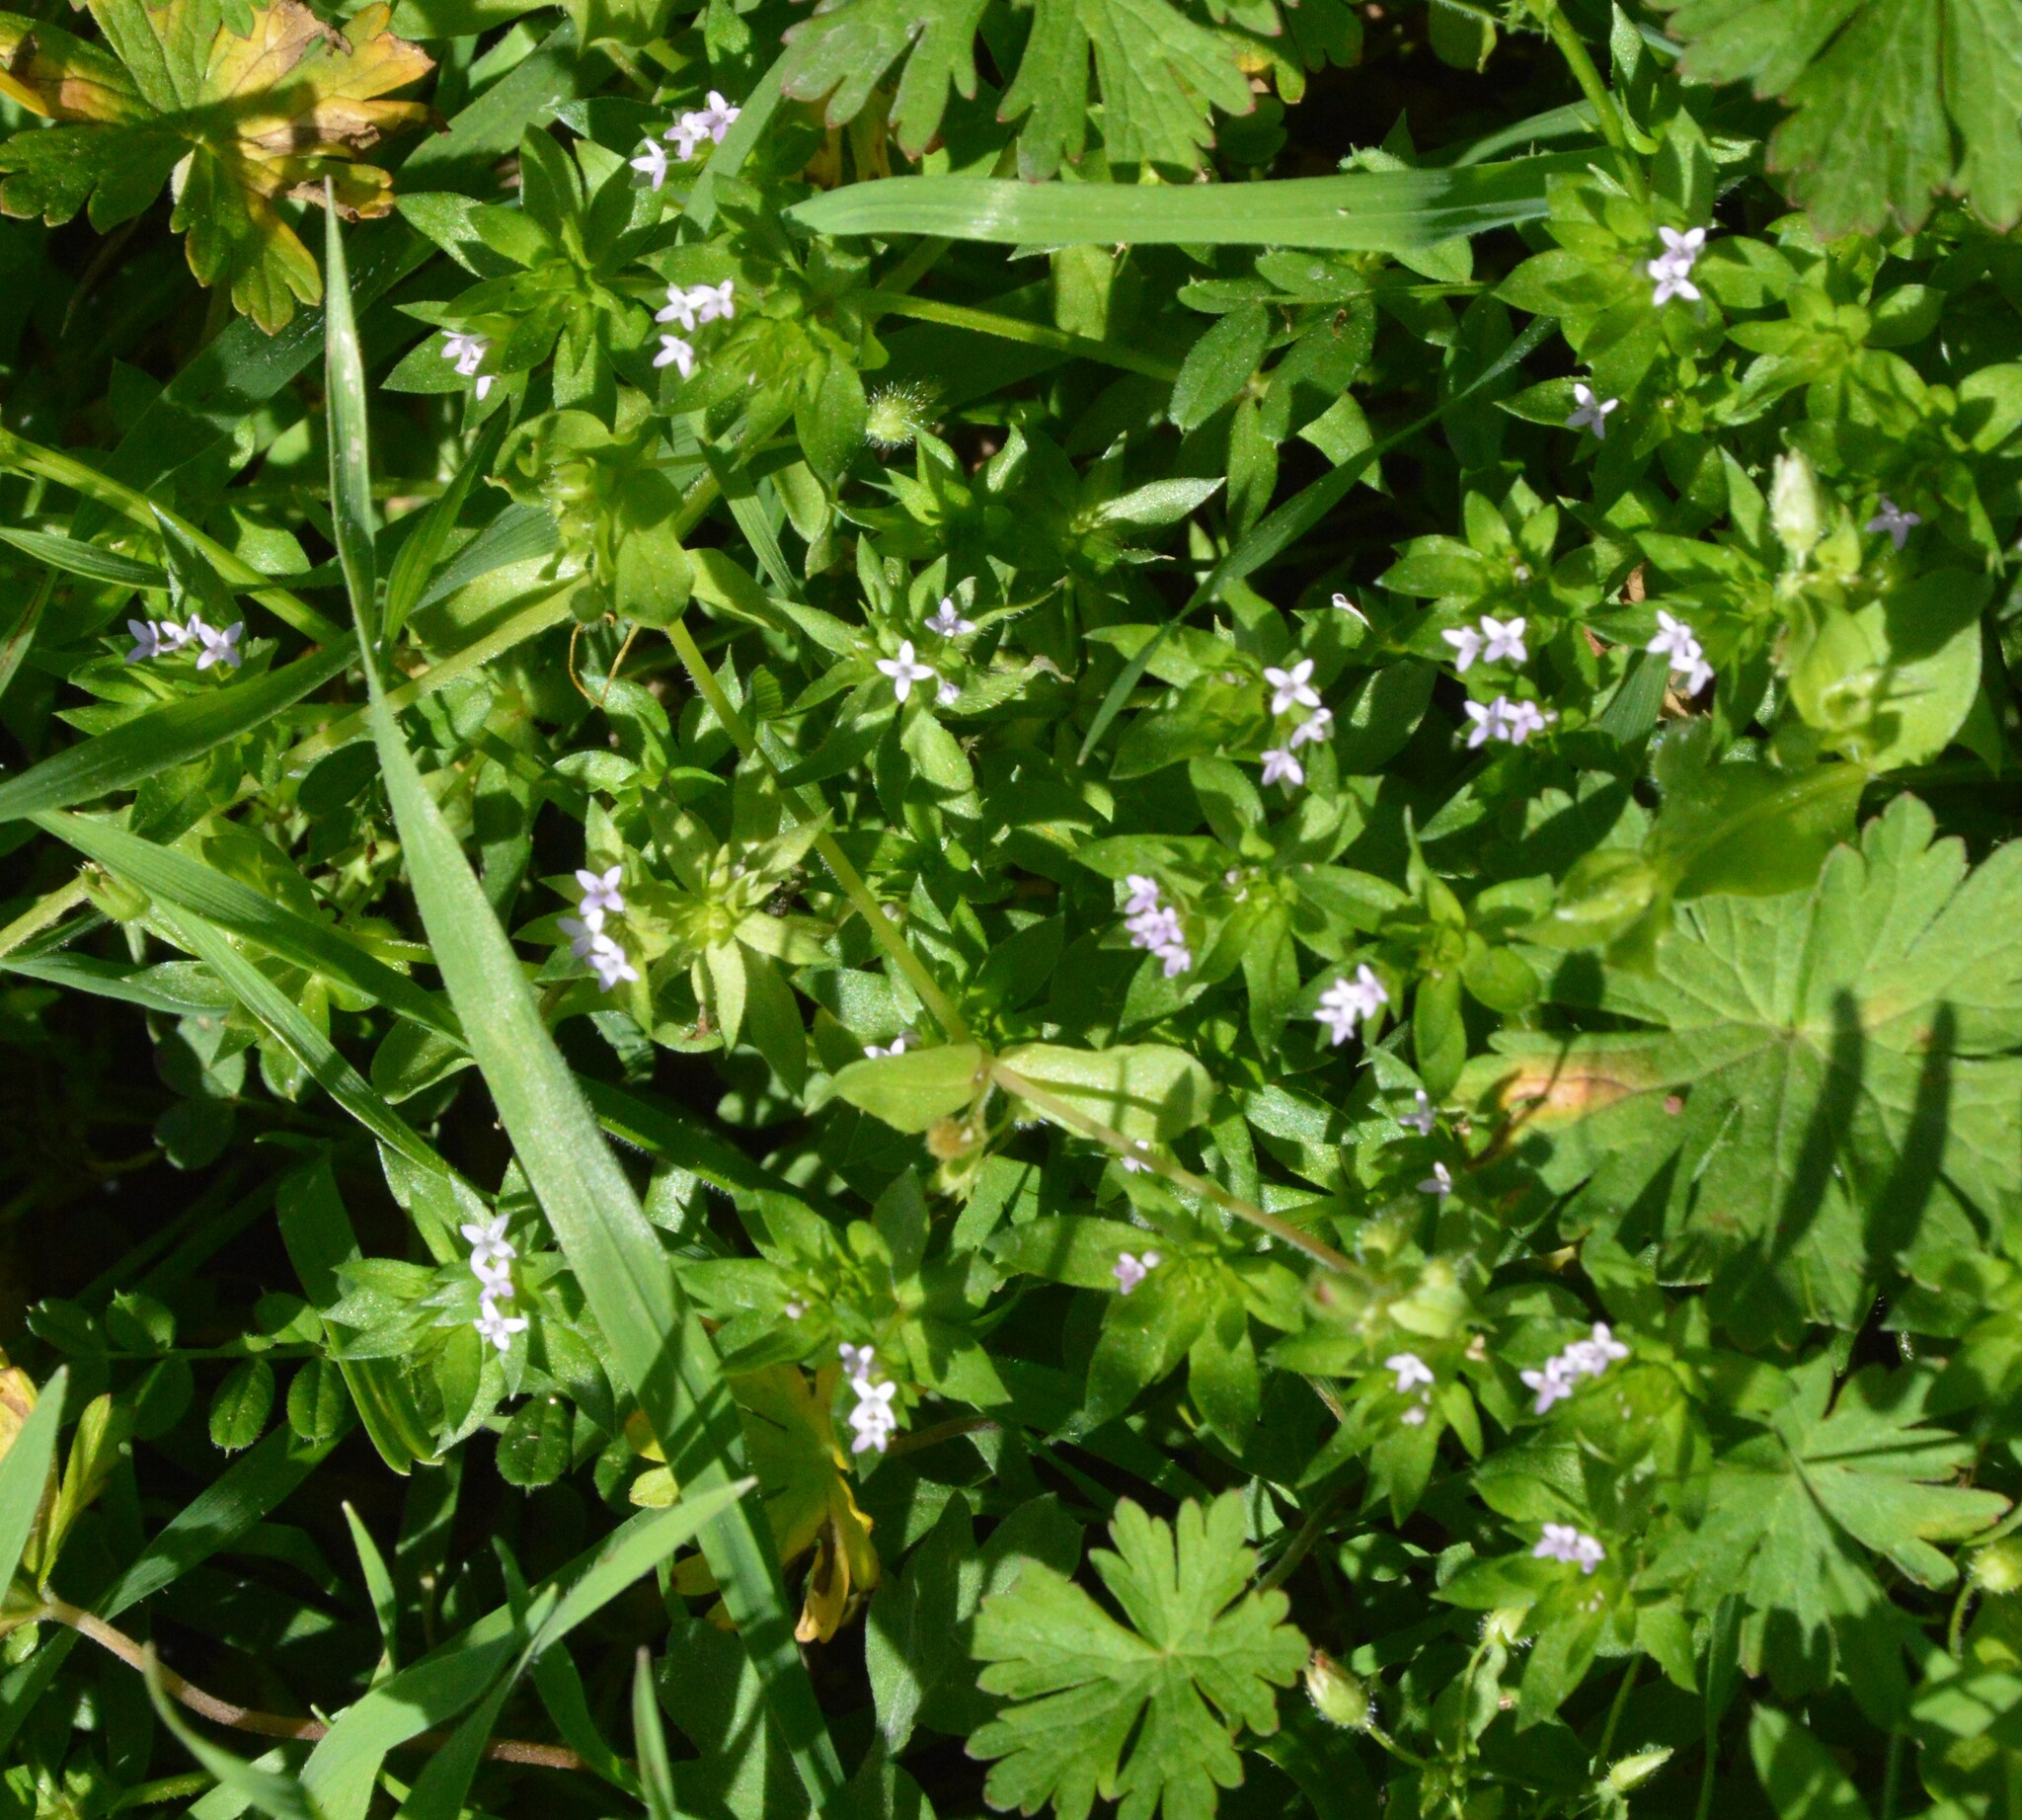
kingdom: Plantae
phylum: Tracheophyta
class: Magnoliopsida
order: Gentianales
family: Rubiaceae
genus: Sherardia
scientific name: Sherardia arvensis
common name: Field madder
